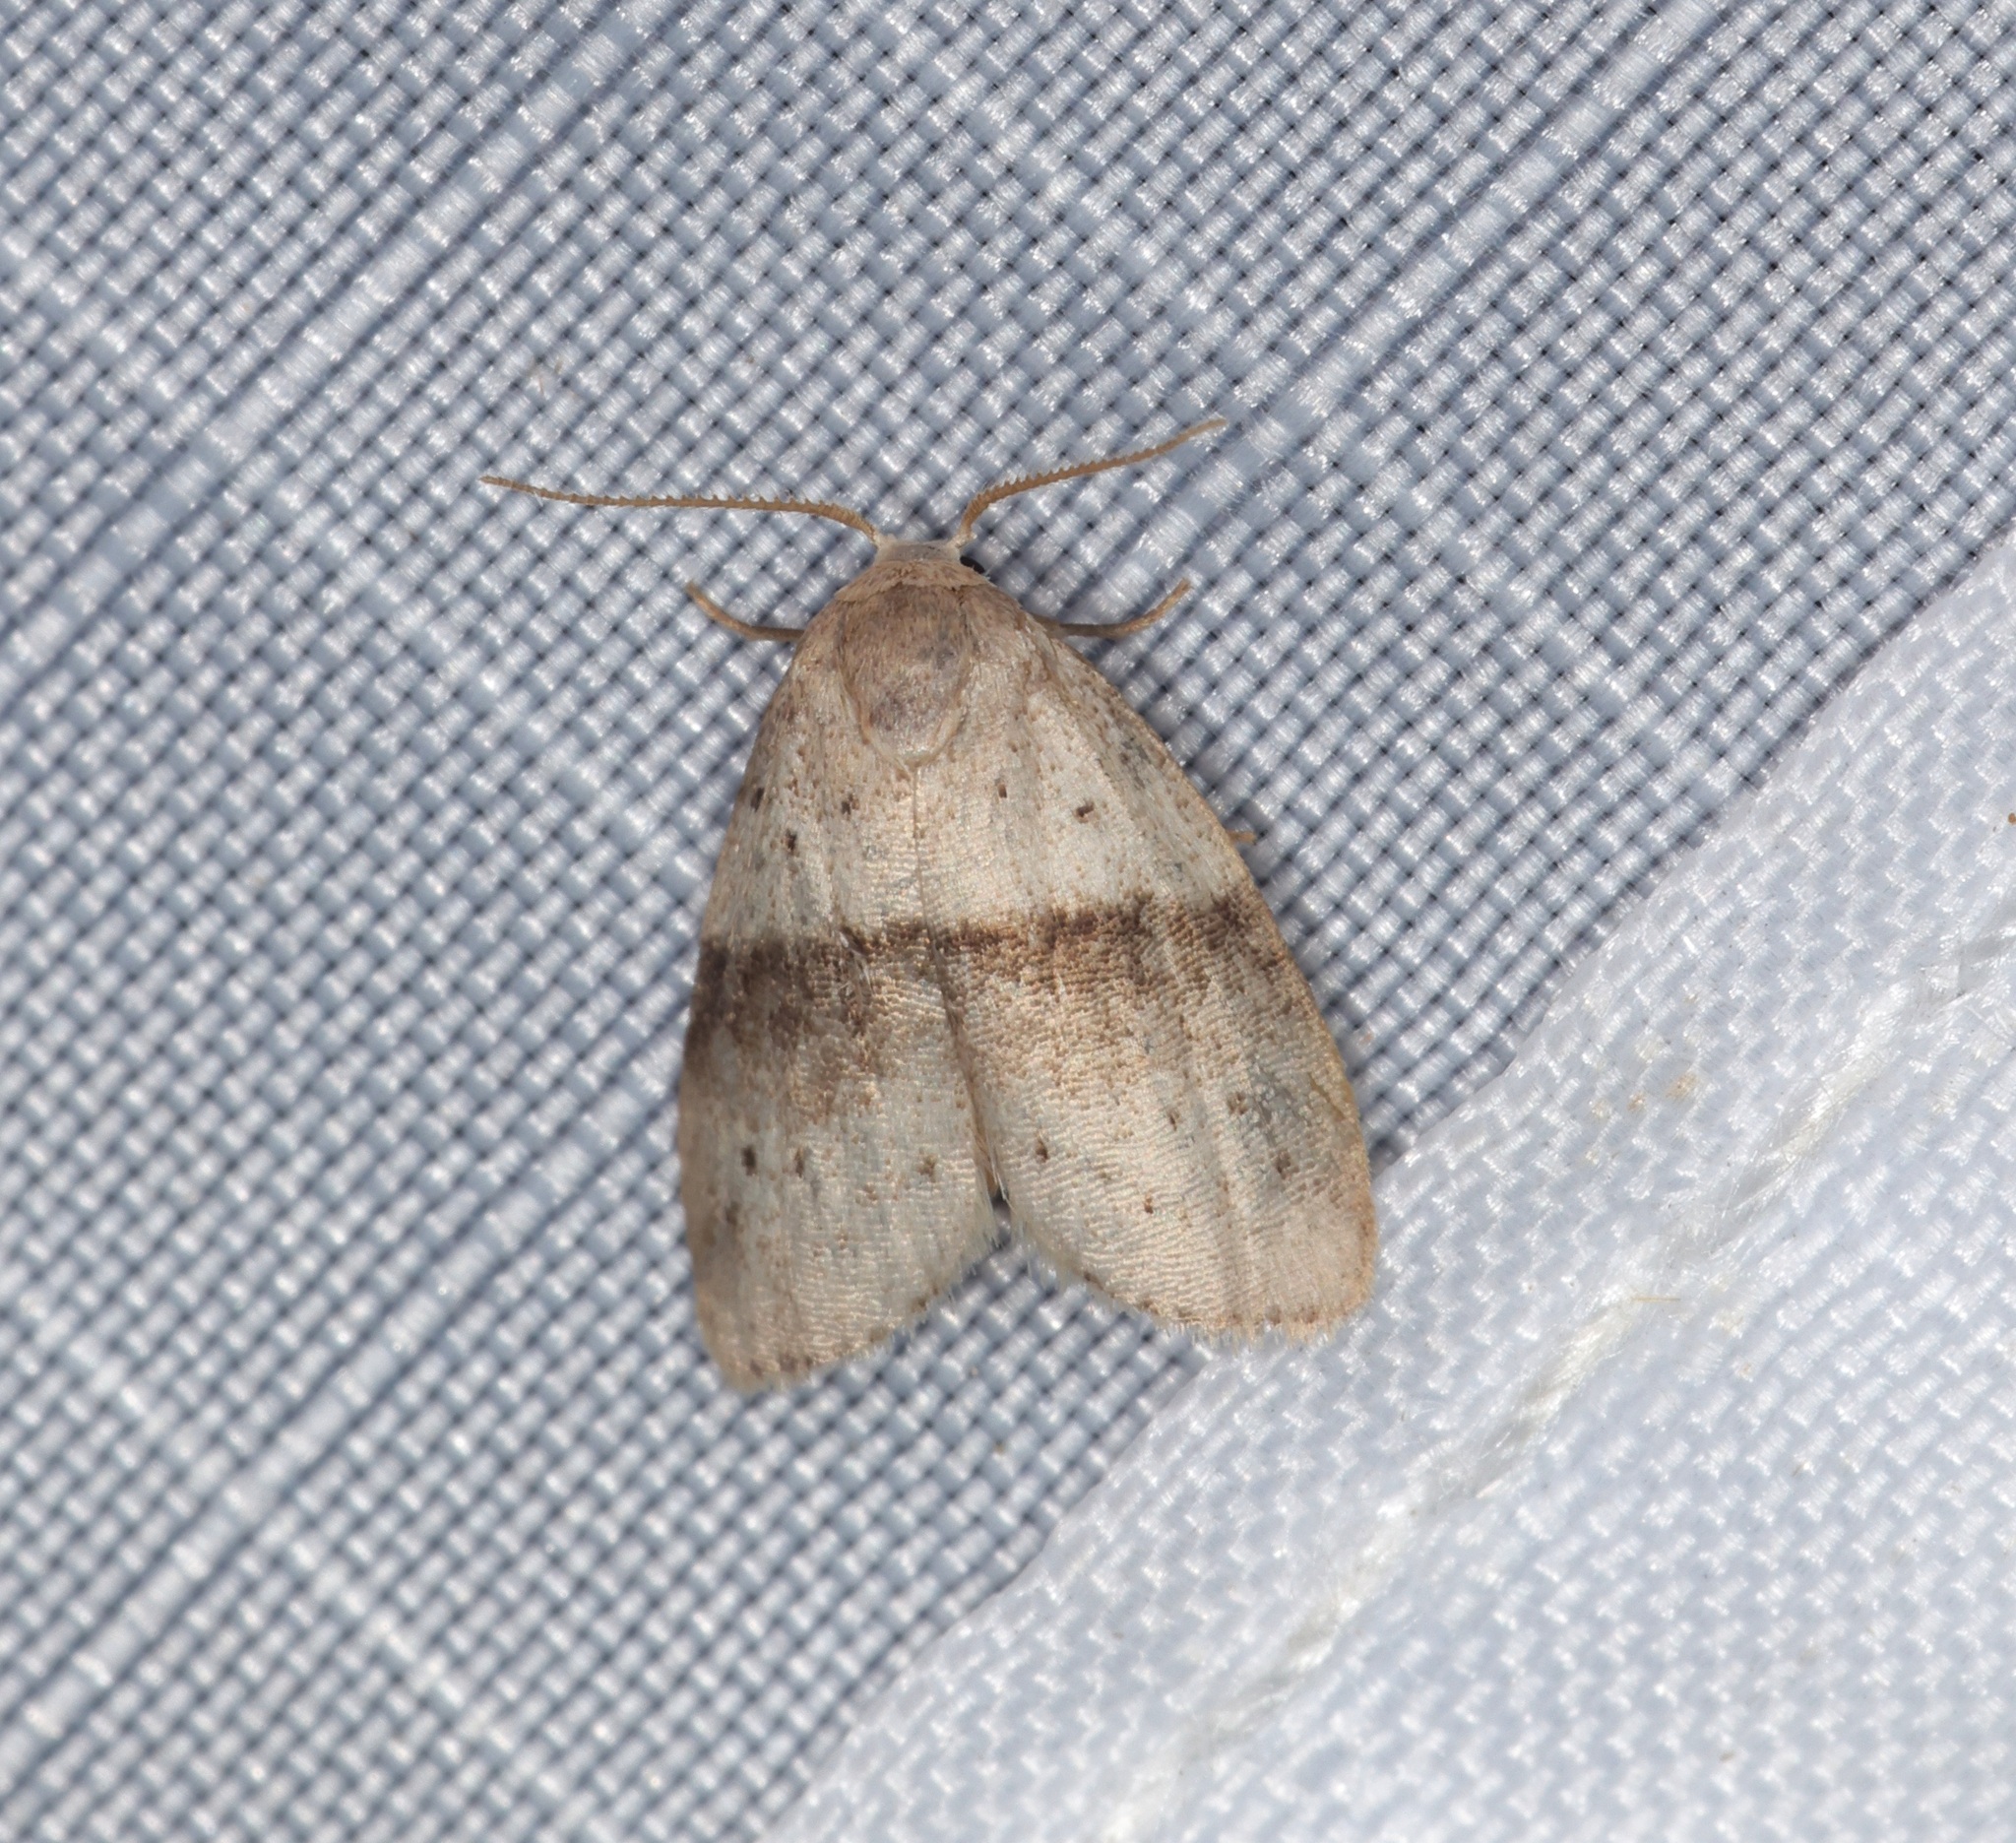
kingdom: Animalia
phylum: Arthropoda
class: Insecta
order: Lepidoptera
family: Erebidae
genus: Stictane
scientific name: Stictane rectilinea
